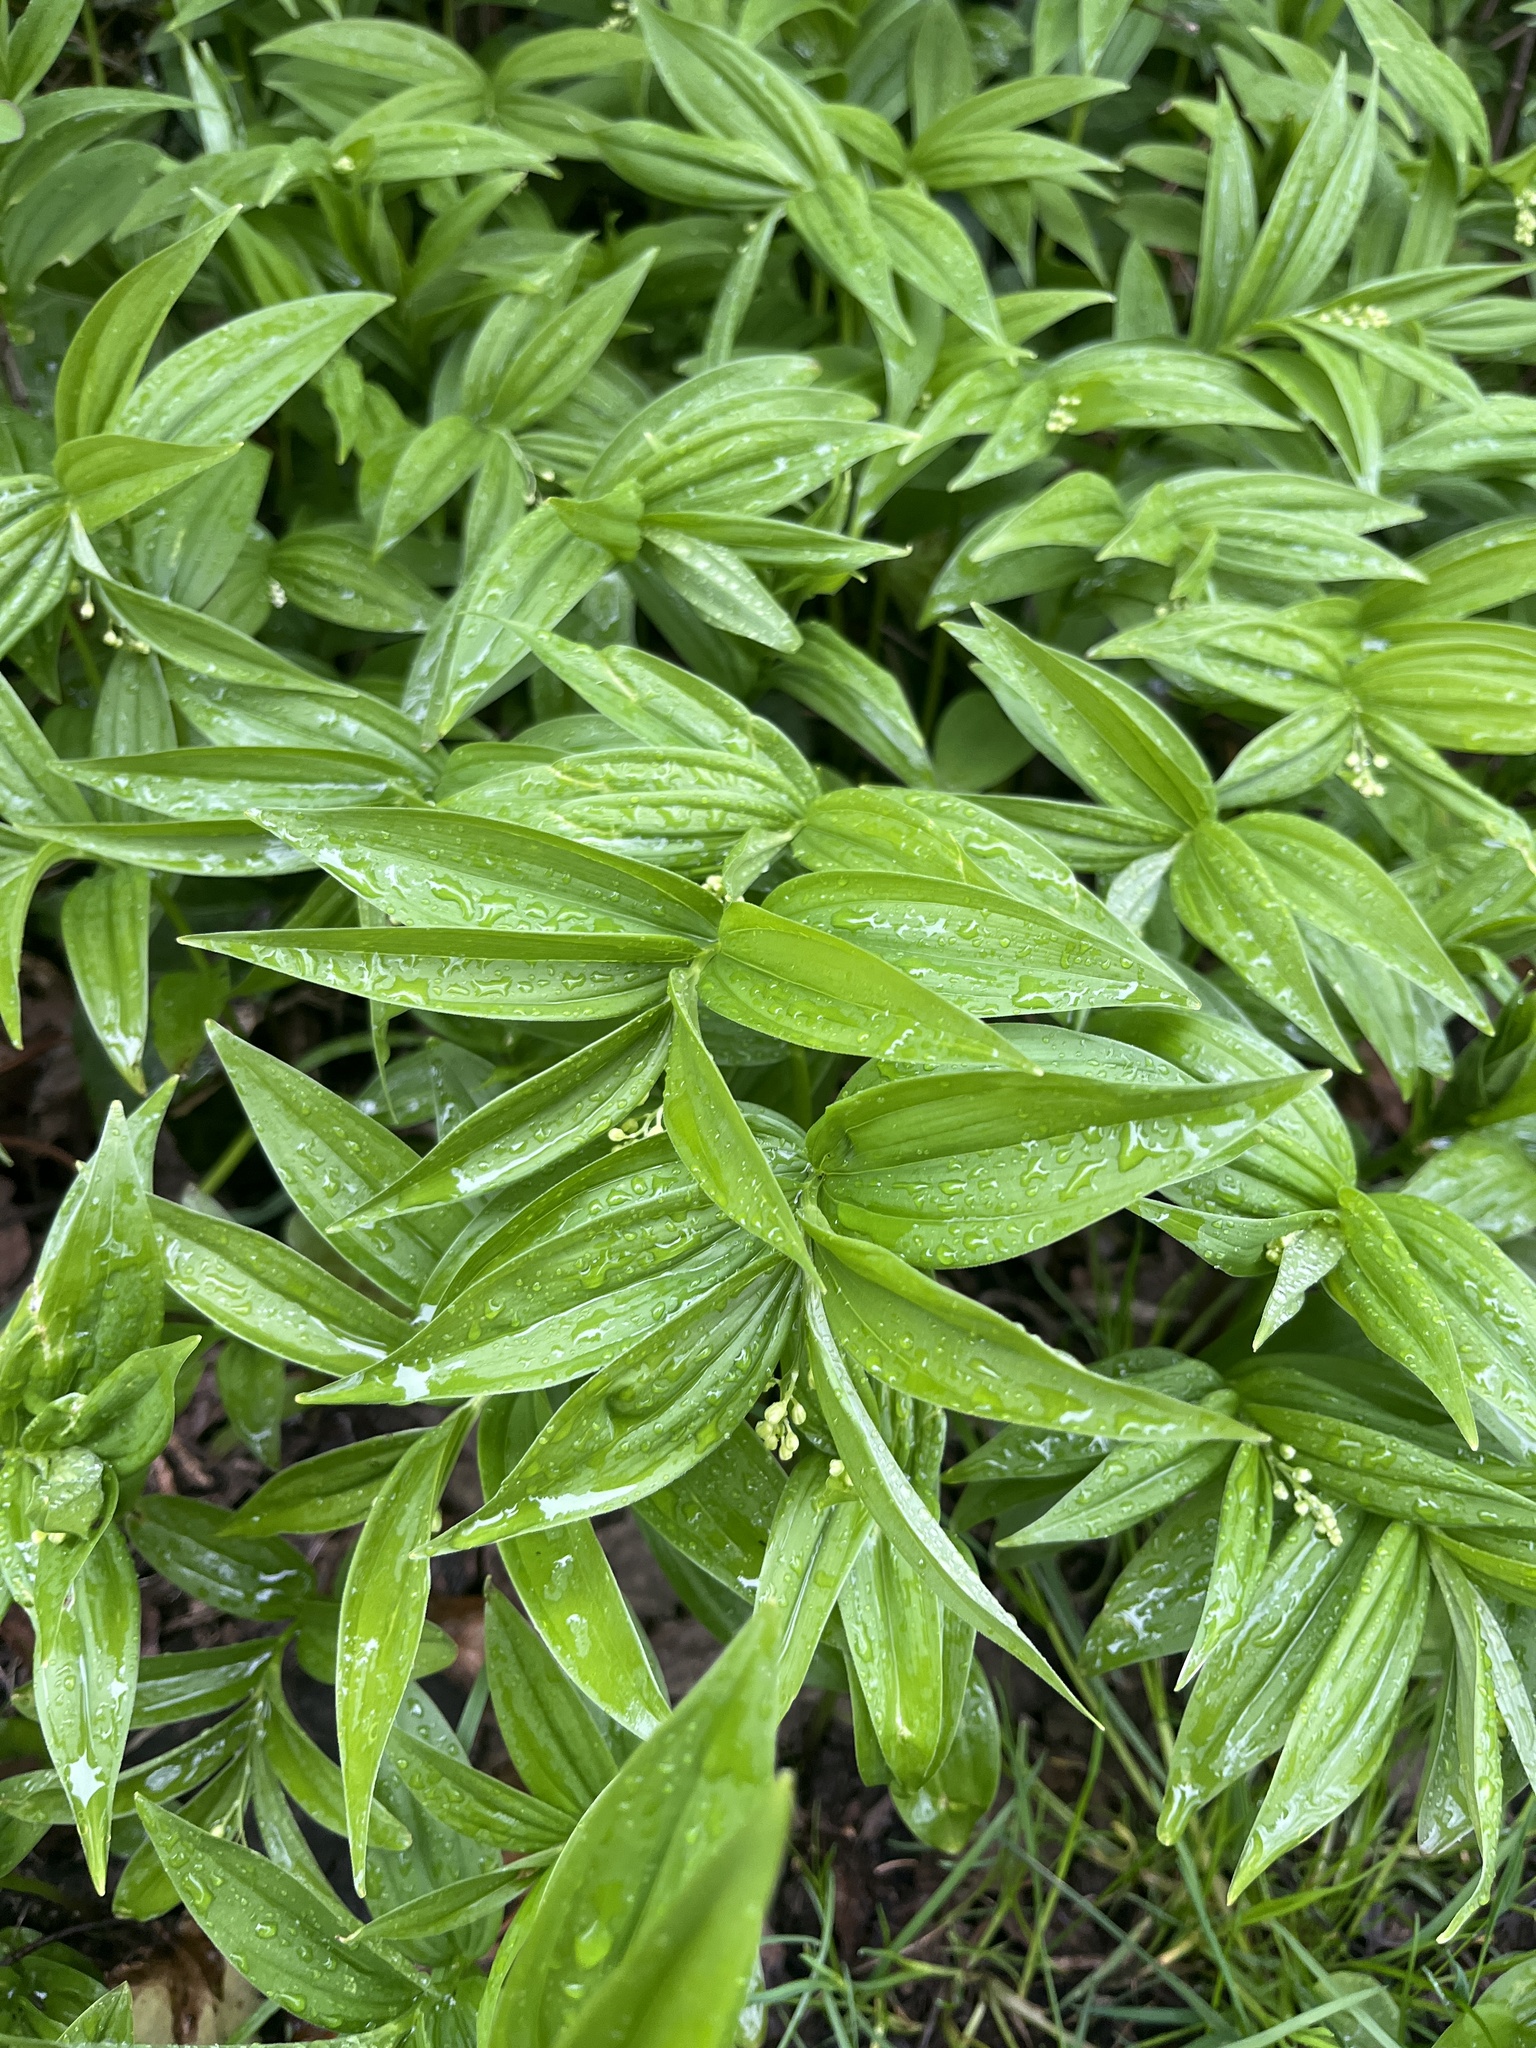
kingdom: Plantae
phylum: Tracheophyta
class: Liliopsida
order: Asparagales
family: Asparagaceae
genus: Maianthemum
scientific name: Maianthemum stellatum
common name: Little false solomon's seal
